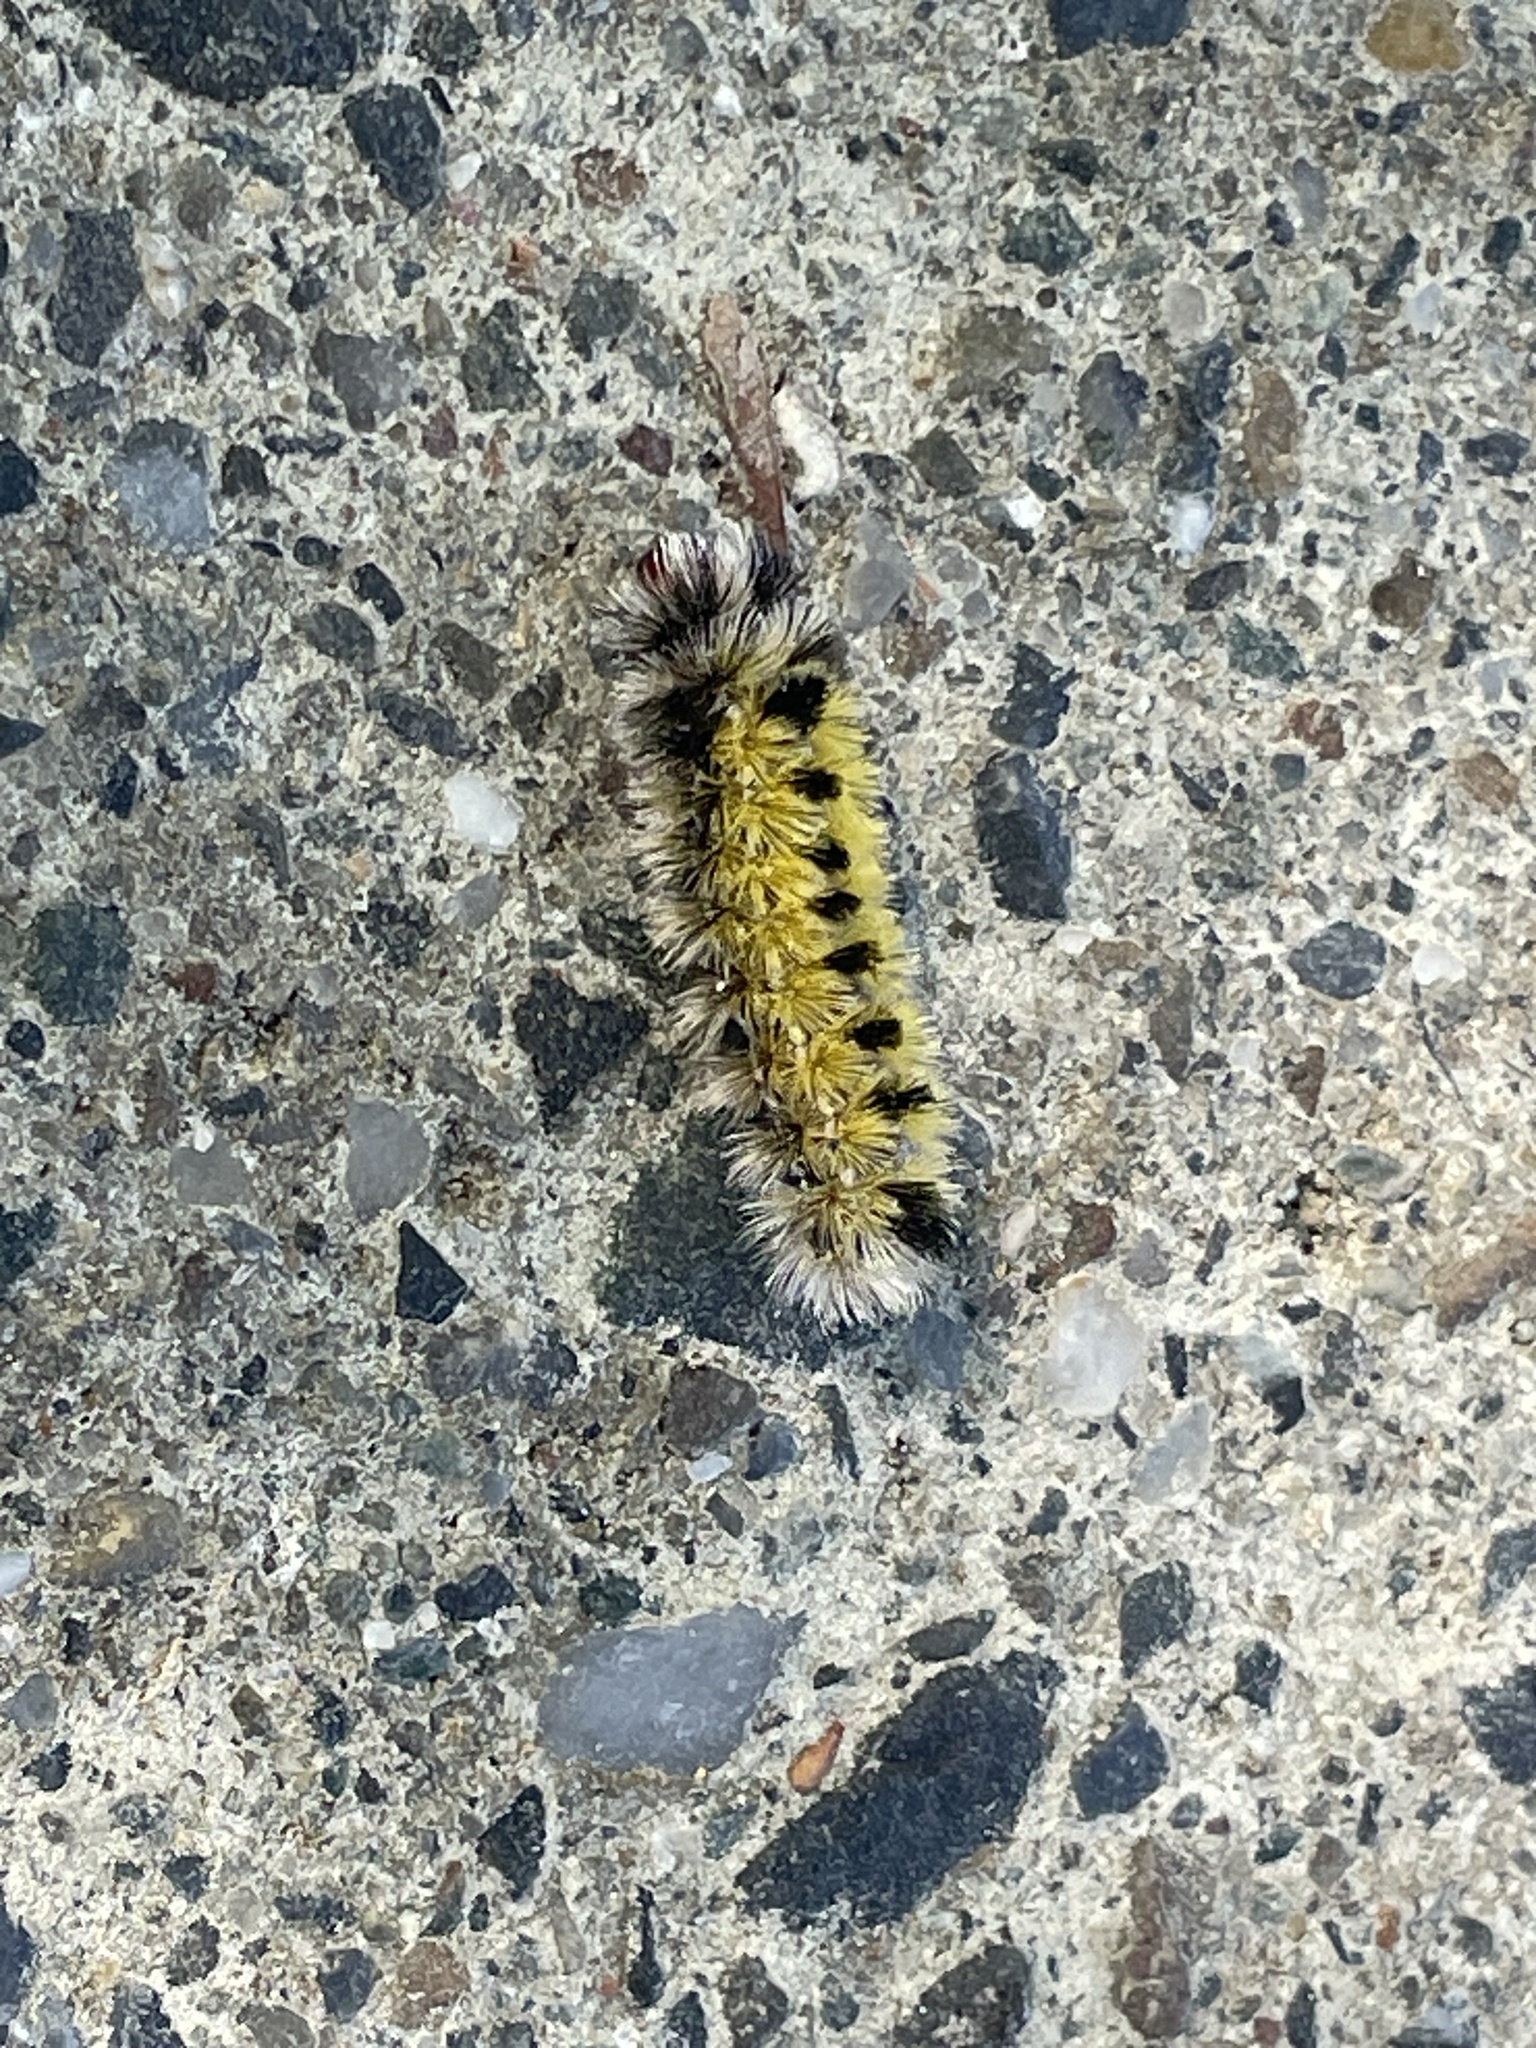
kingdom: Animalia
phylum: Arthropoda
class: Insecta
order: Lepidoptera
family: Erebidae
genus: Ctenucha
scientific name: Ctenucha virginica
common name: Virginia ctenucha moth
